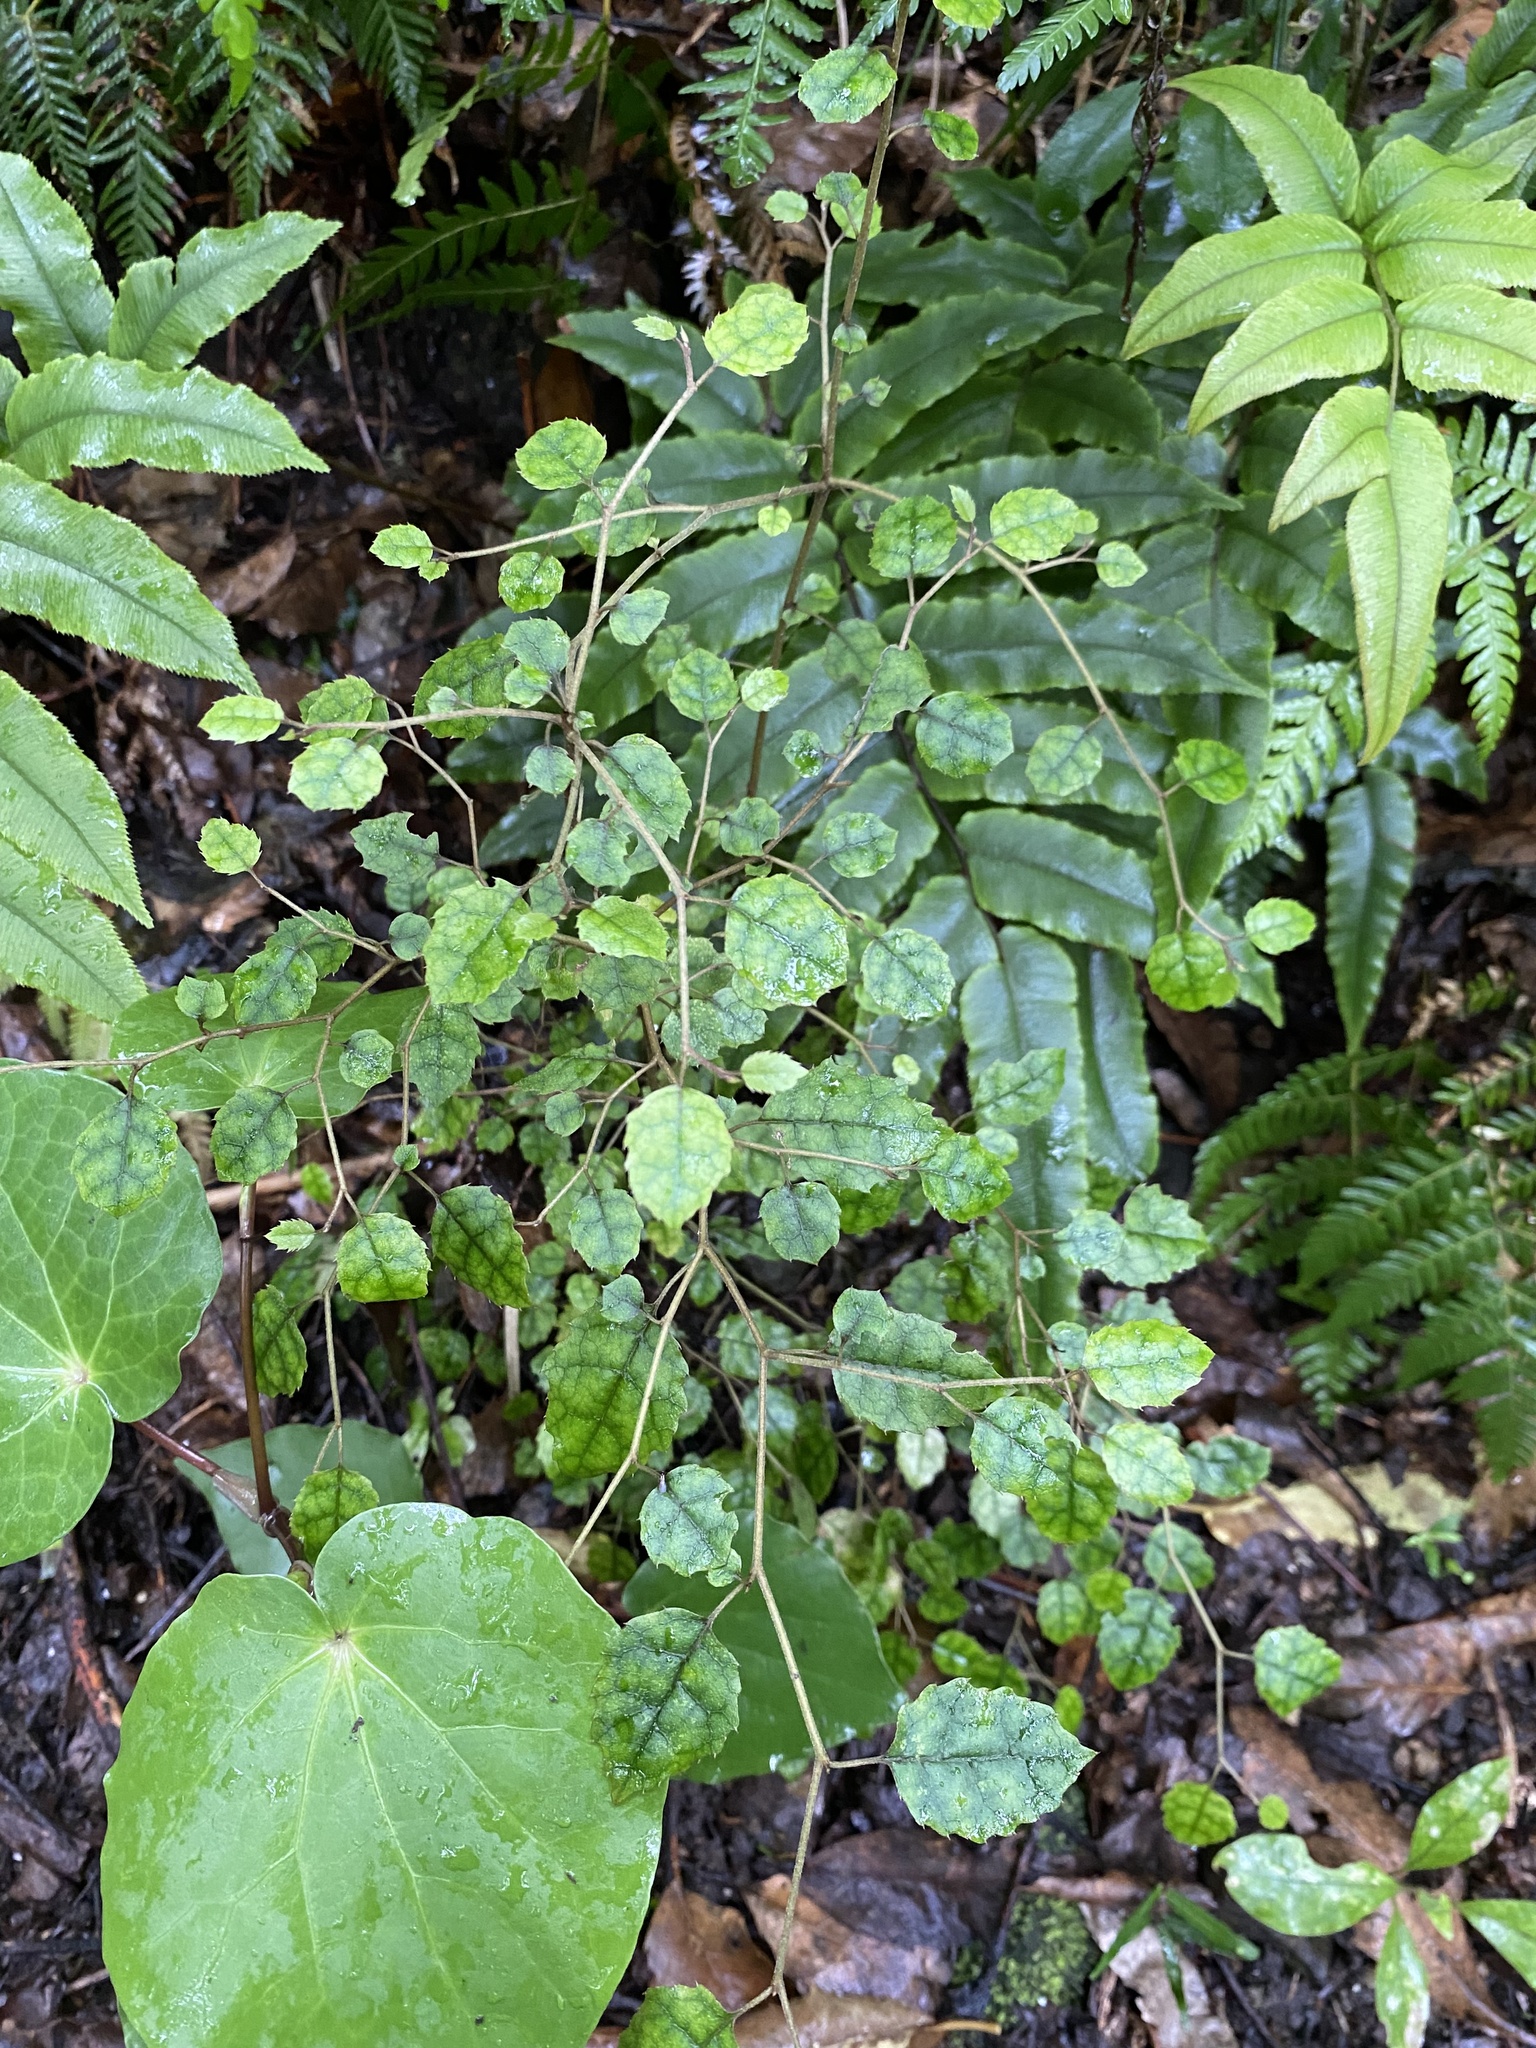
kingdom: Plantae
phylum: Tracheophyta
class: Magnoliopsida
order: Asterales
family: Rousseaceae
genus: Carpodetus
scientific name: Carpodetus serratus
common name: White mapau
